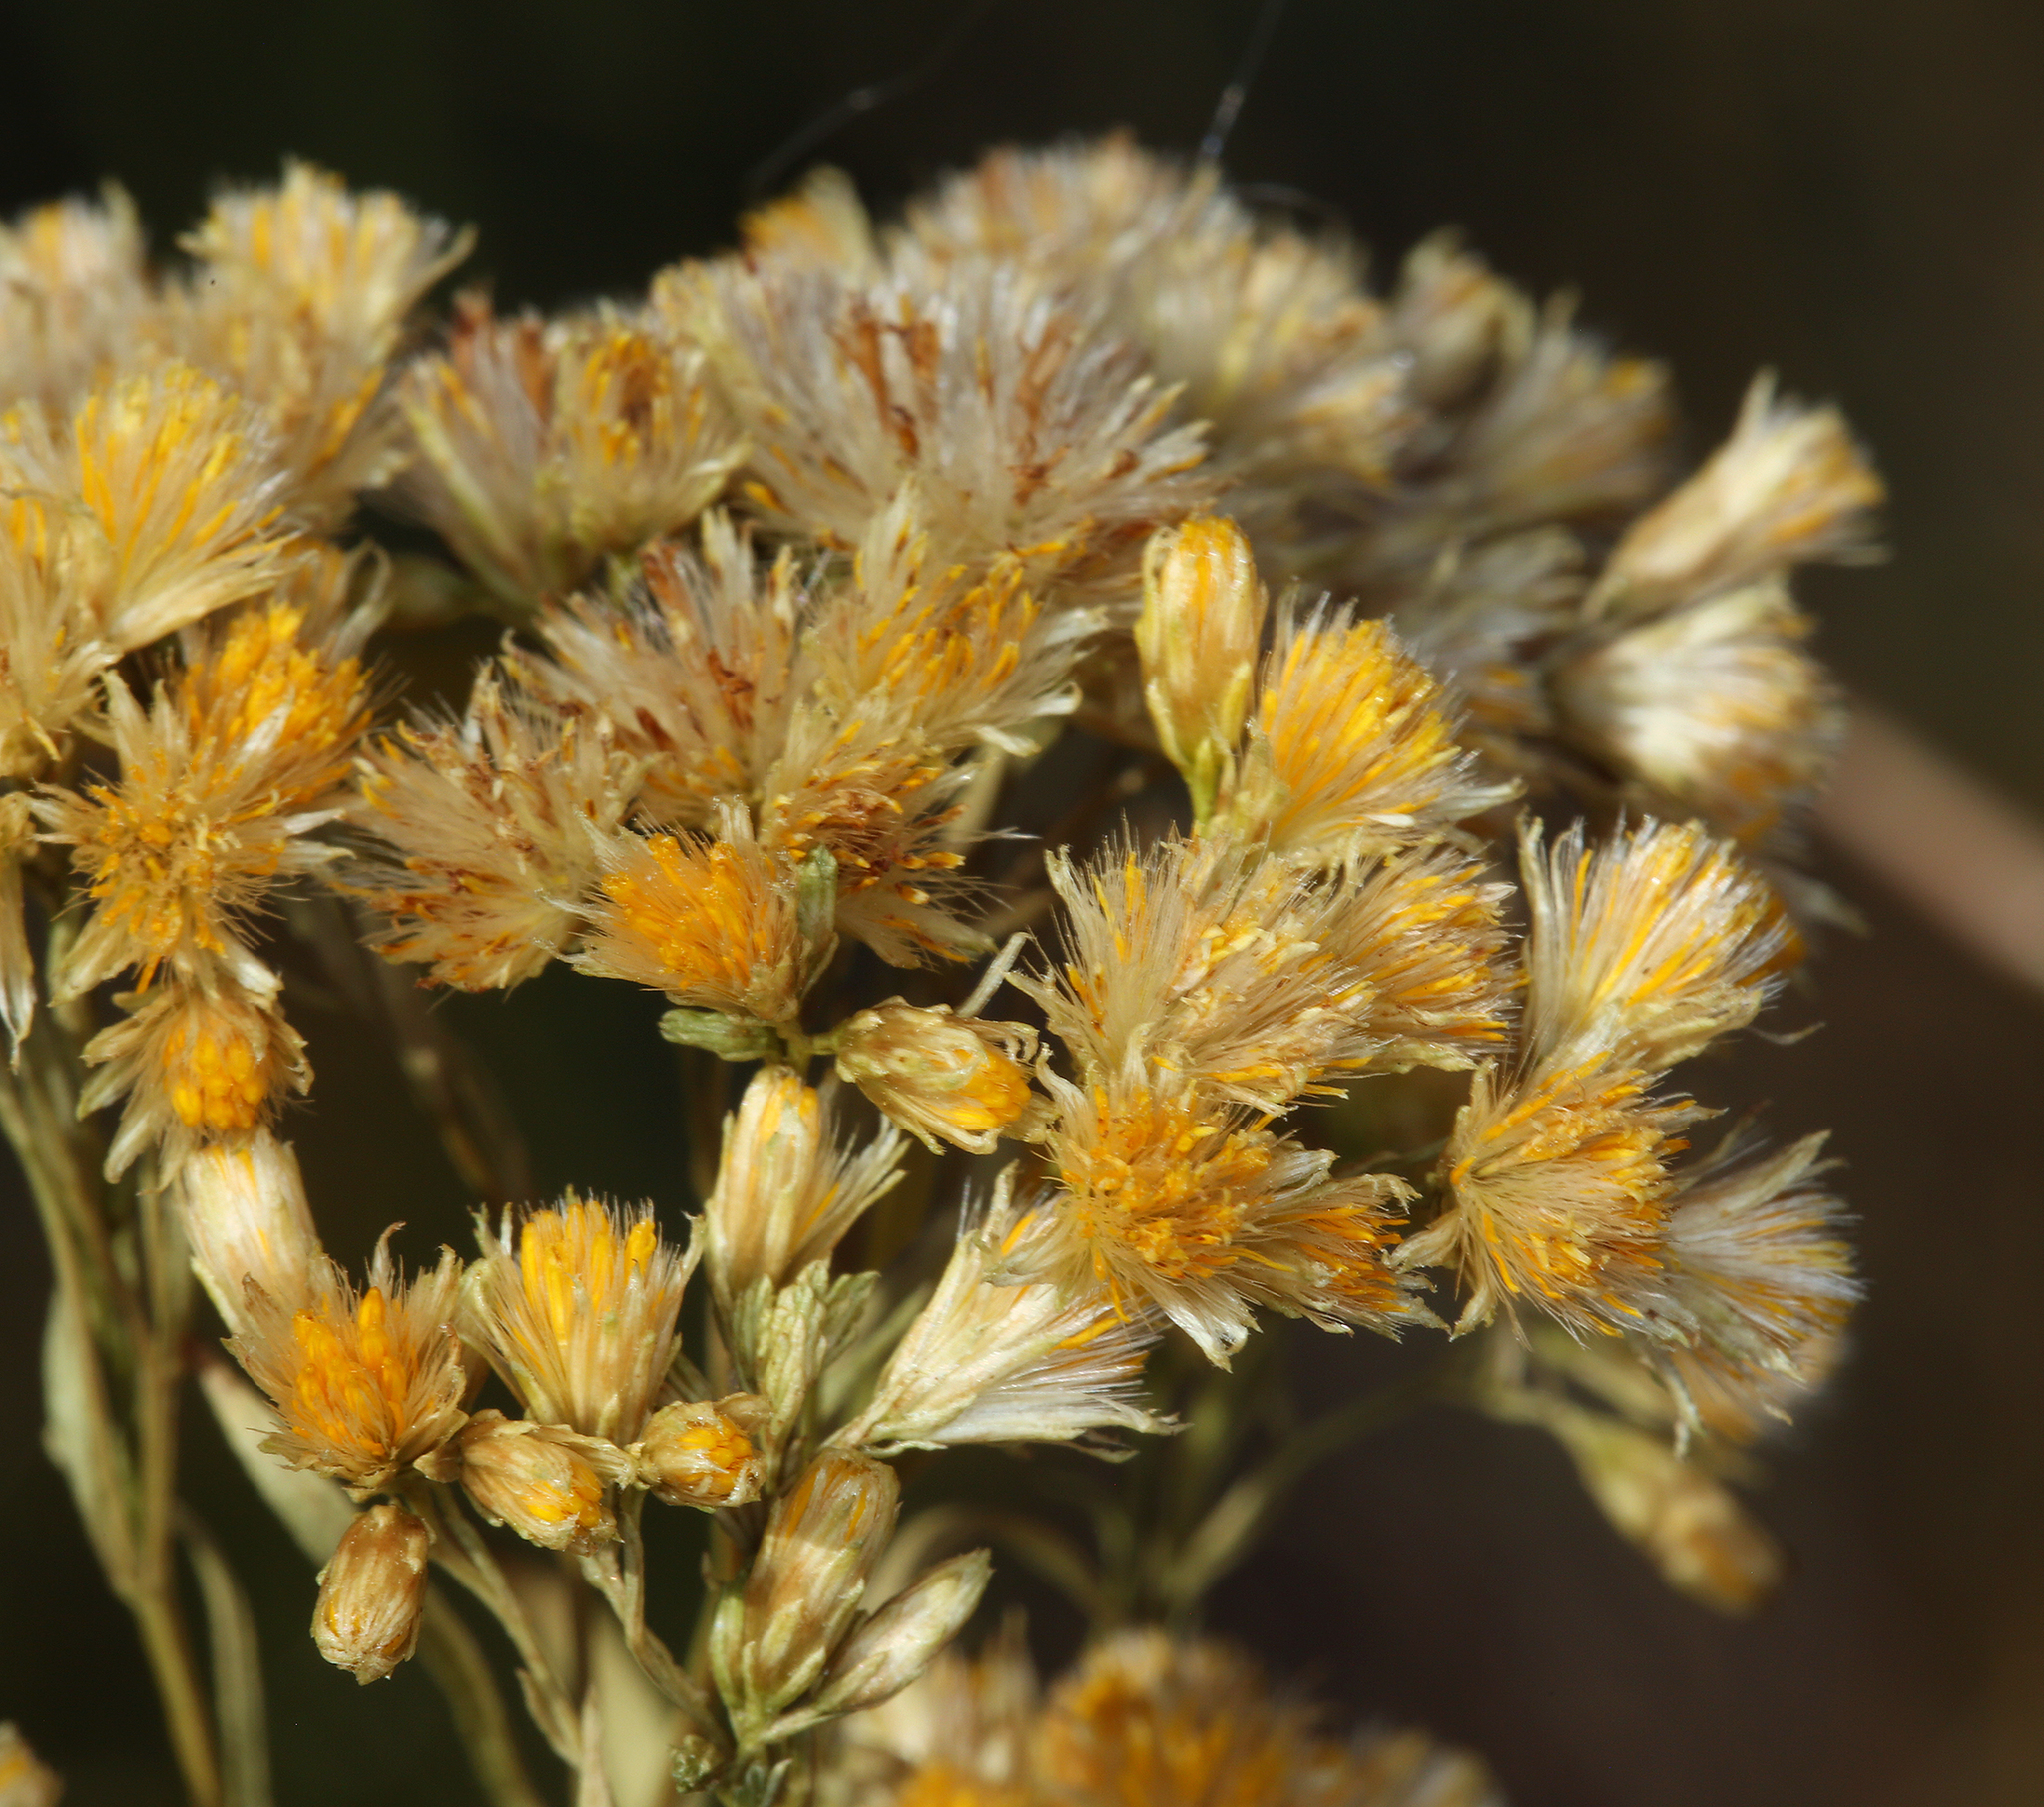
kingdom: Plantae
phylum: Tracheophyta
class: Magnoliopsida
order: Asterales
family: Asteraceae
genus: Euthamia
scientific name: Euthamia occidentalis
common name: Western goldentop
